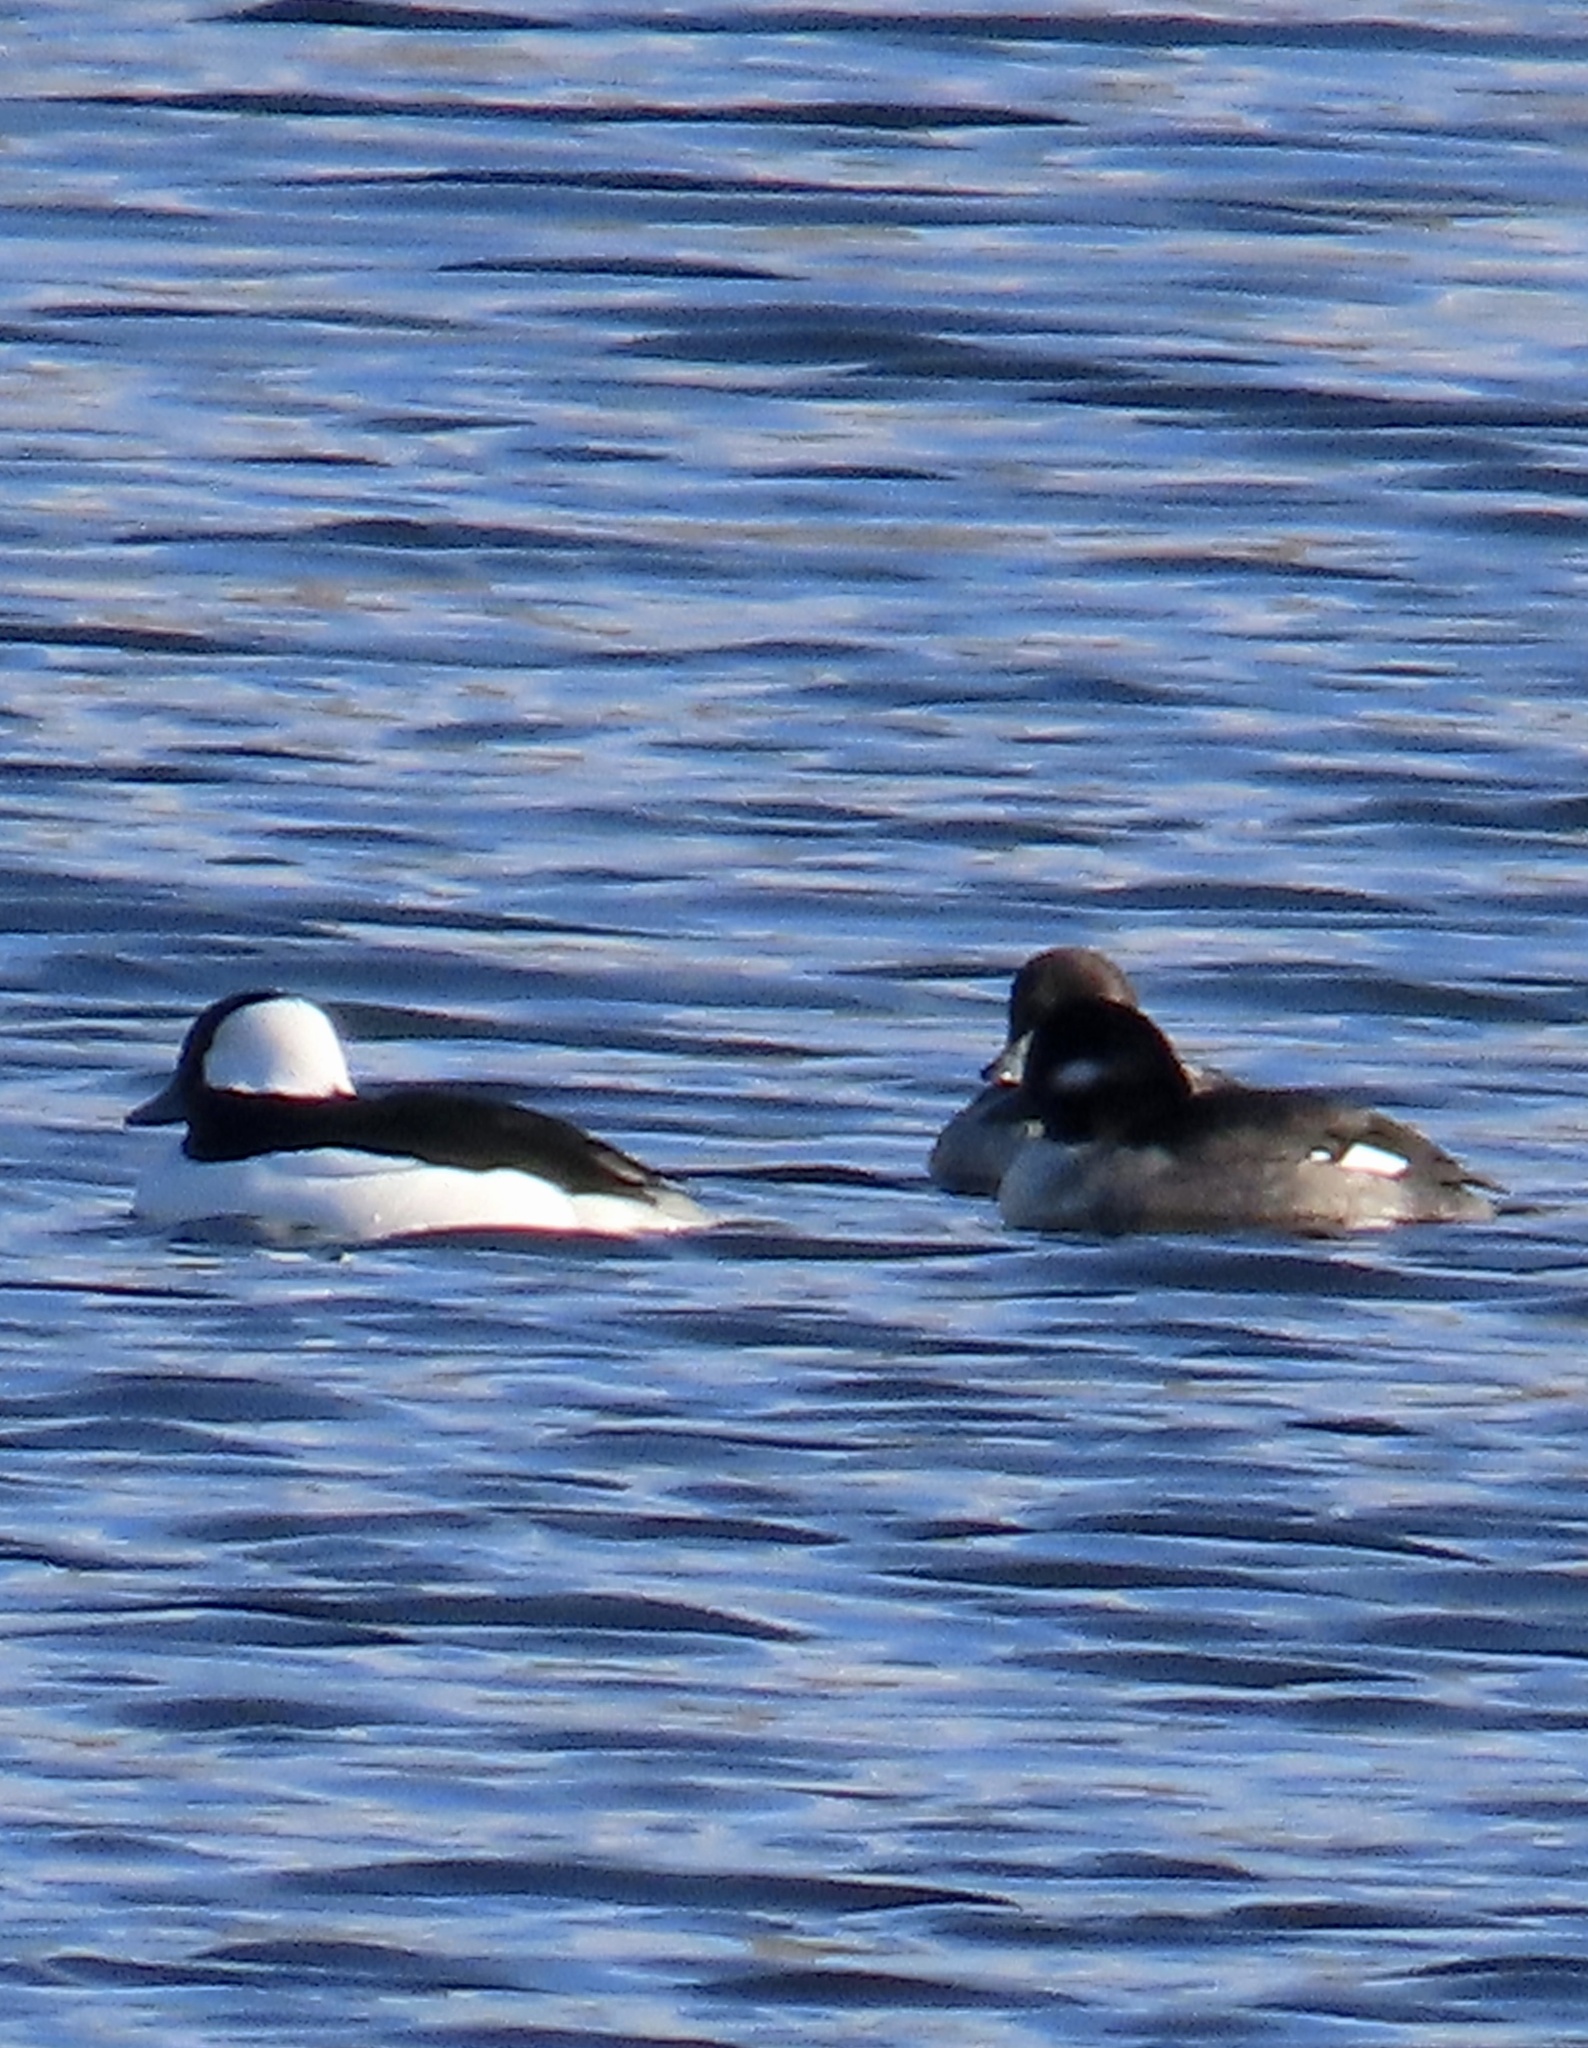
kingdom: Animalia
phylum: Chordata
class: Aves
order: Anseriformes
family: Anatidae
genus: Bucephala
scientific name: Bucephala albeola
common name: Bufflehead
